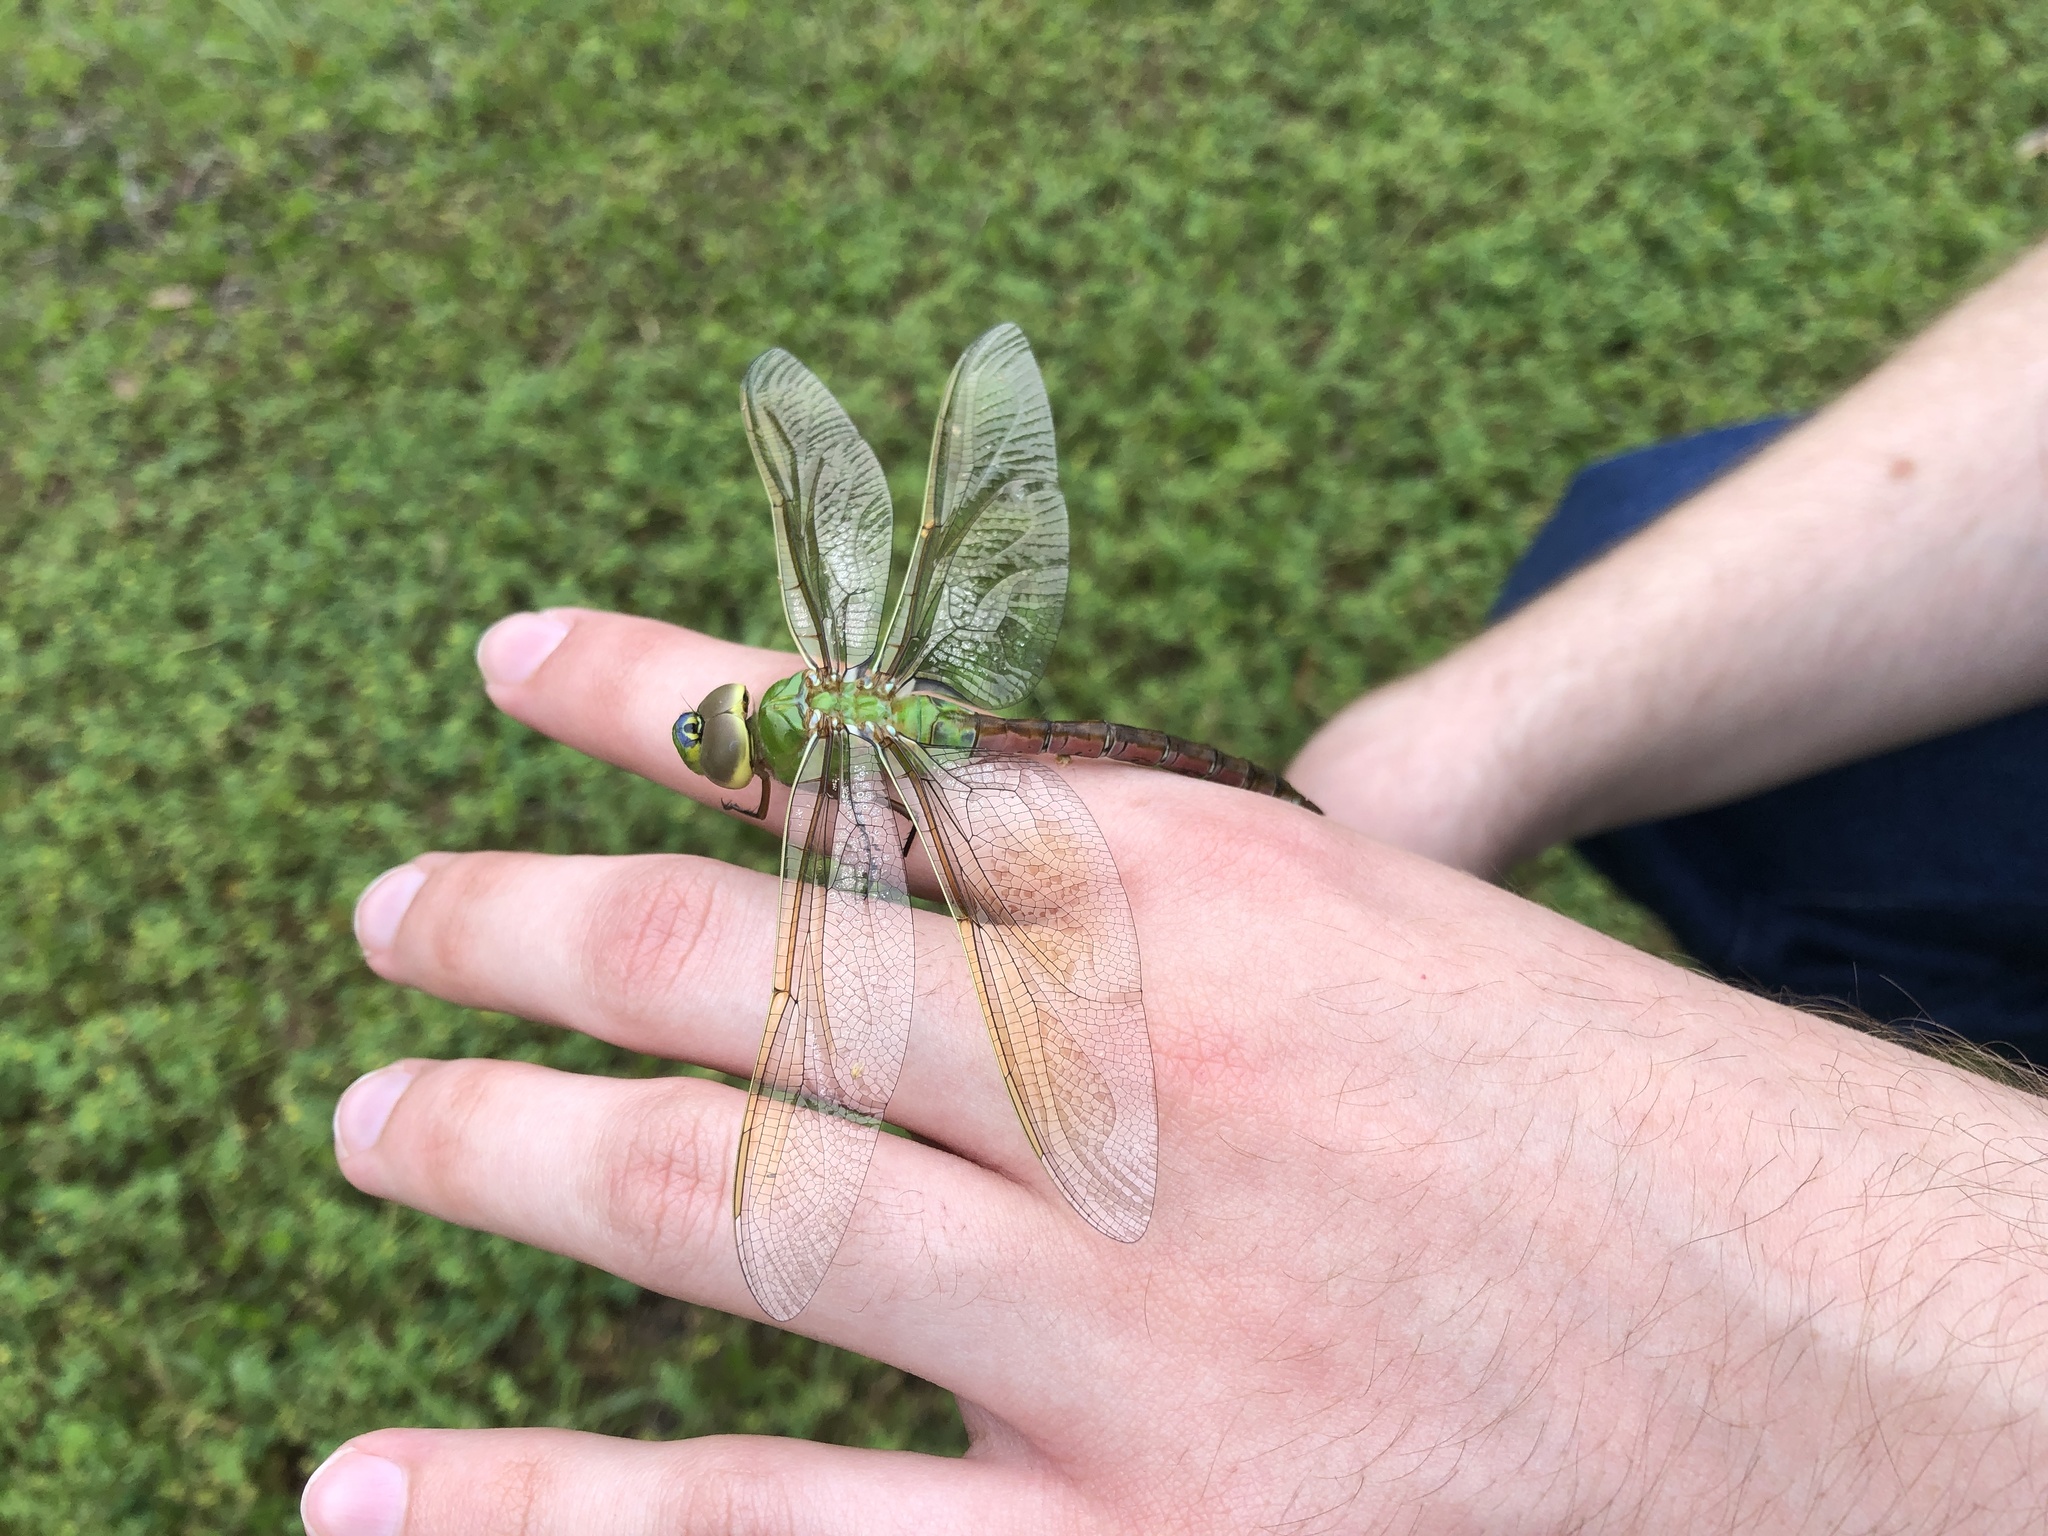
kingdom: Animalia
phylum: Arthropoda
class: Insecta
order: Odonata
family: Aeshnidae
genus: Anax
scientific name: Anax junius
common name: Common green darner
